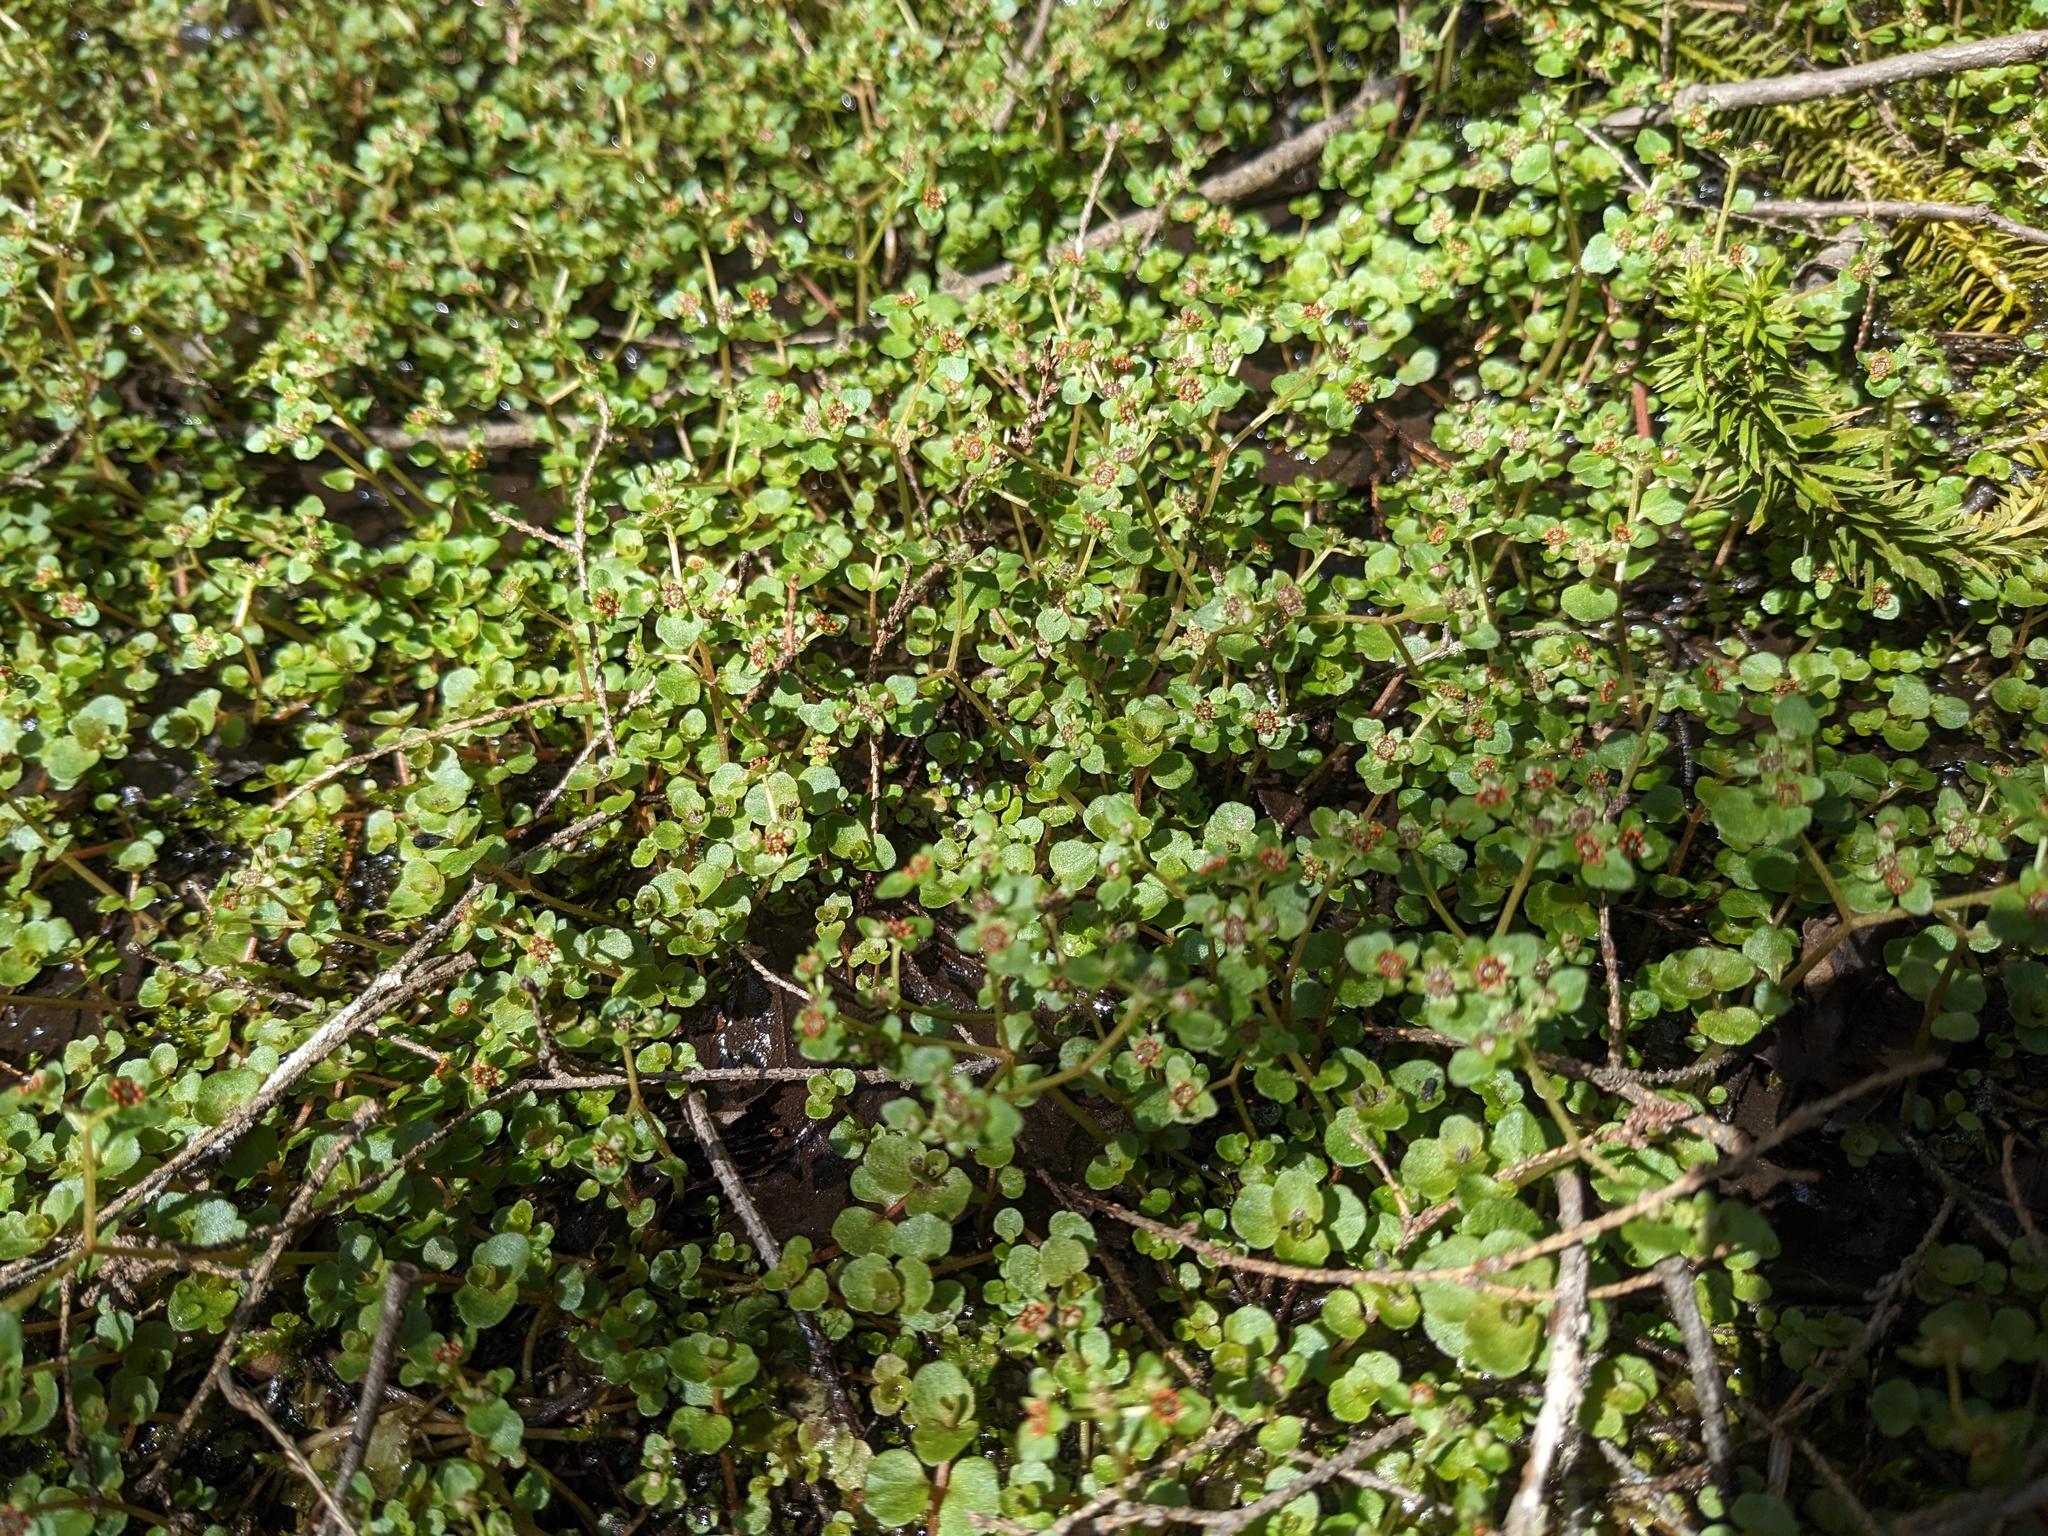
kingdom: Plantae
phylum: Tracheophyta
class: Magnoliopsida
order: Saxifragales
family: Saxifragaceae
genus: Chrysosplenium
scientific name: Chrysosplenium americanum
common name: American golden-saxifrage
